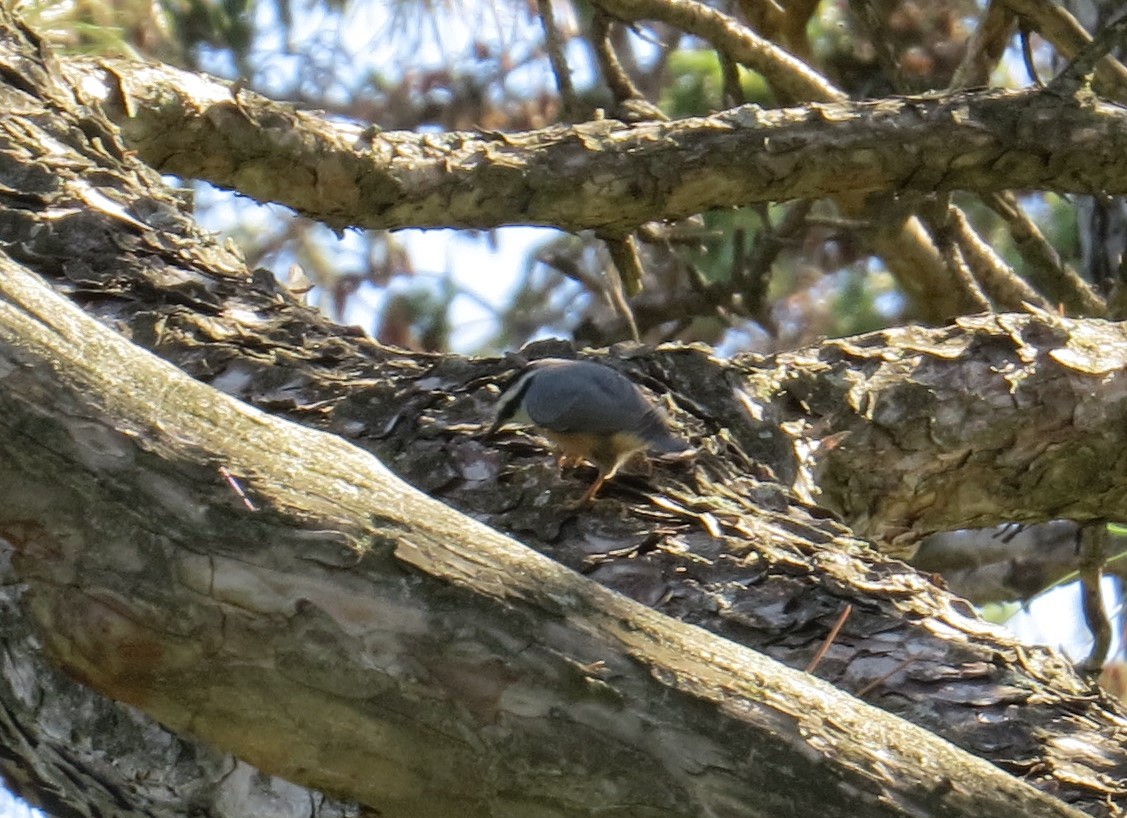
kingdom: Animalia
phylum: Chordata
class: Aves
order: Passeriformes
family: Sittidae
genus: Sitta
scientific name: Sitta canadensis
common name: Red-breasted nuthatch
